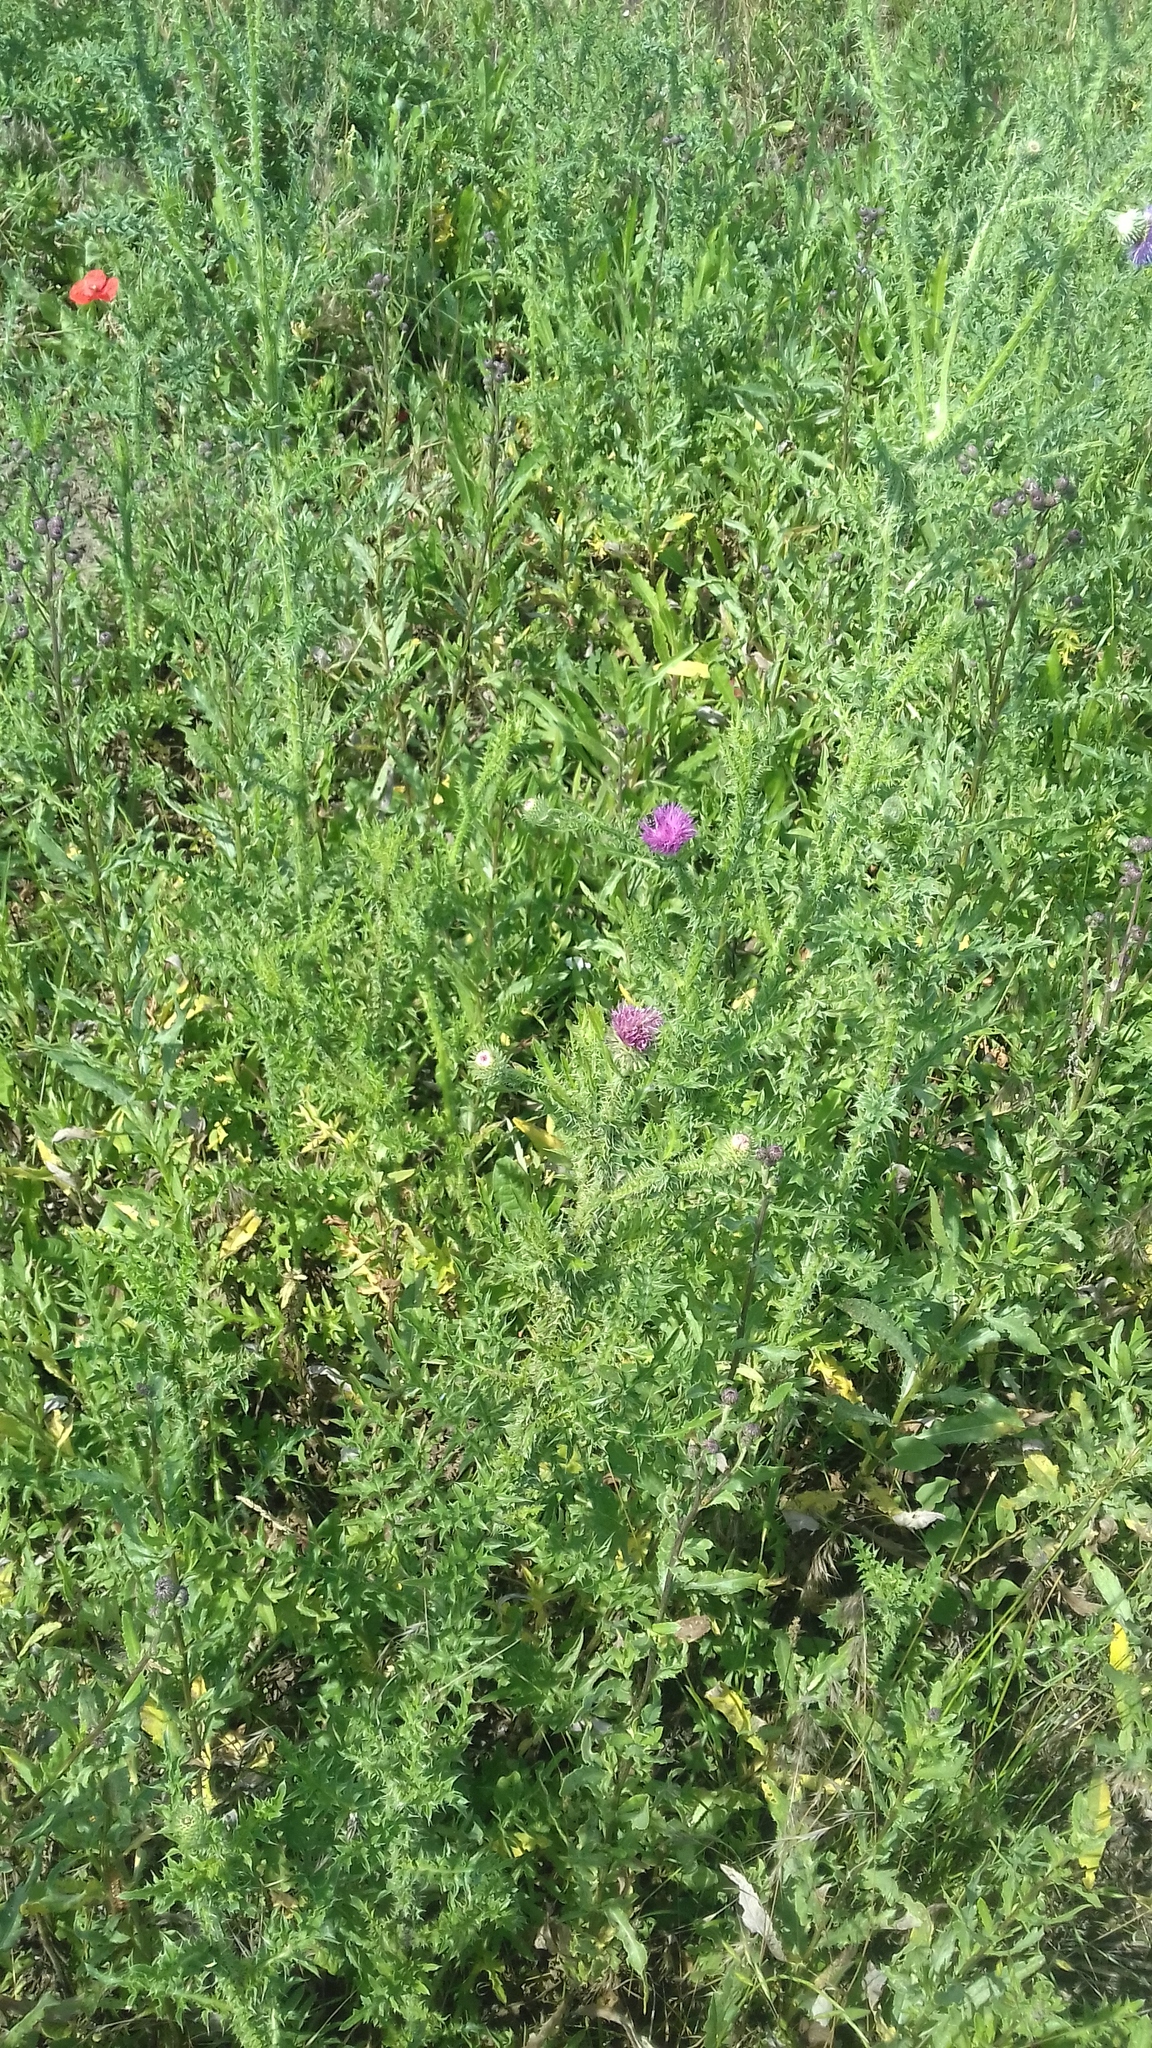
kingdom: Plantae
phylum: Tracheophyta
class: Magnoliopsida
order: Asterales
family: Asteraceae
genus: Carduus
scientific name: Carduus acanthoides
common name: Plumeless thistle
